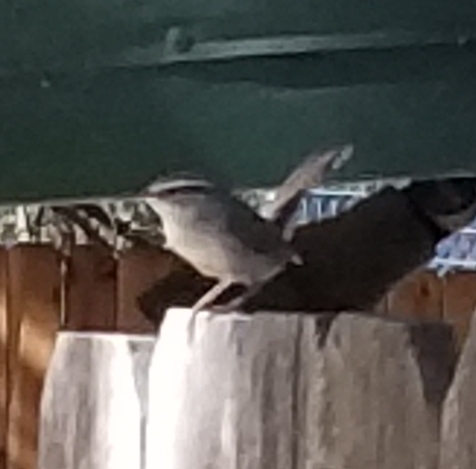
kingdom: Animalia
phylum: Chordata
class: Aves
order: Passeriformes
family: Troglodytidae
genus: Thryomanes
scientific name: Thryomanes bewickii
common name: Bewick's wren
